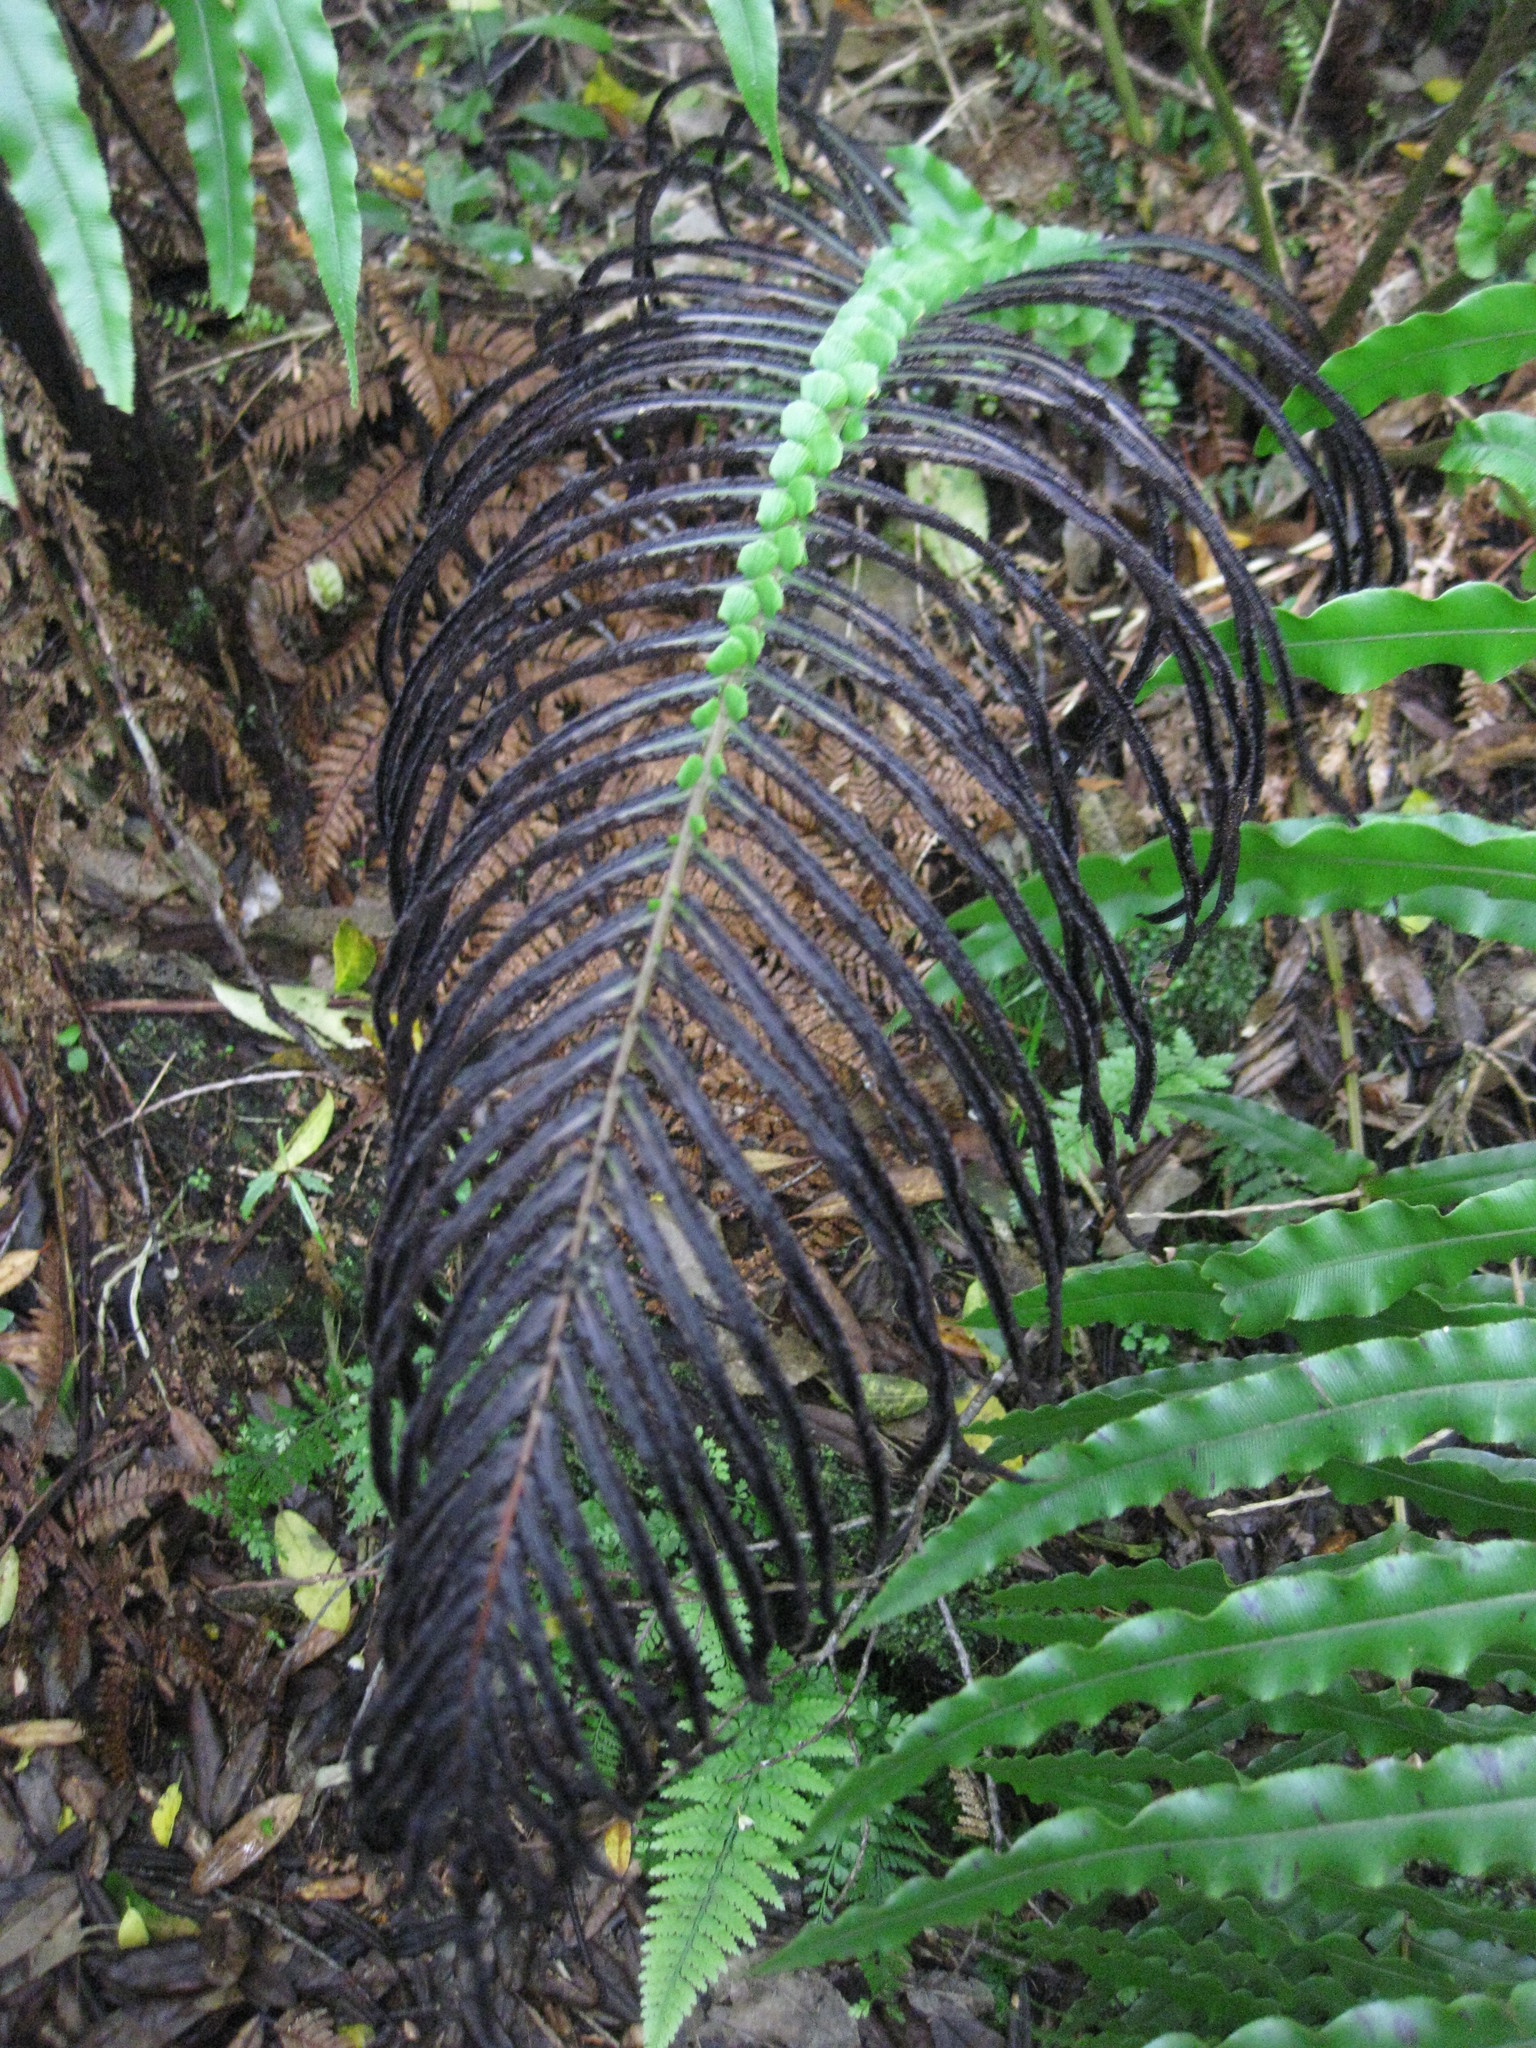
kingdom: Plantae
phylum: Tracheophyta
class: Polypodiopsida
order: Polypodiales
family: Blechnaceae
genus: Parablechnum
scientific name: Parablechnum novae-zelandiae
